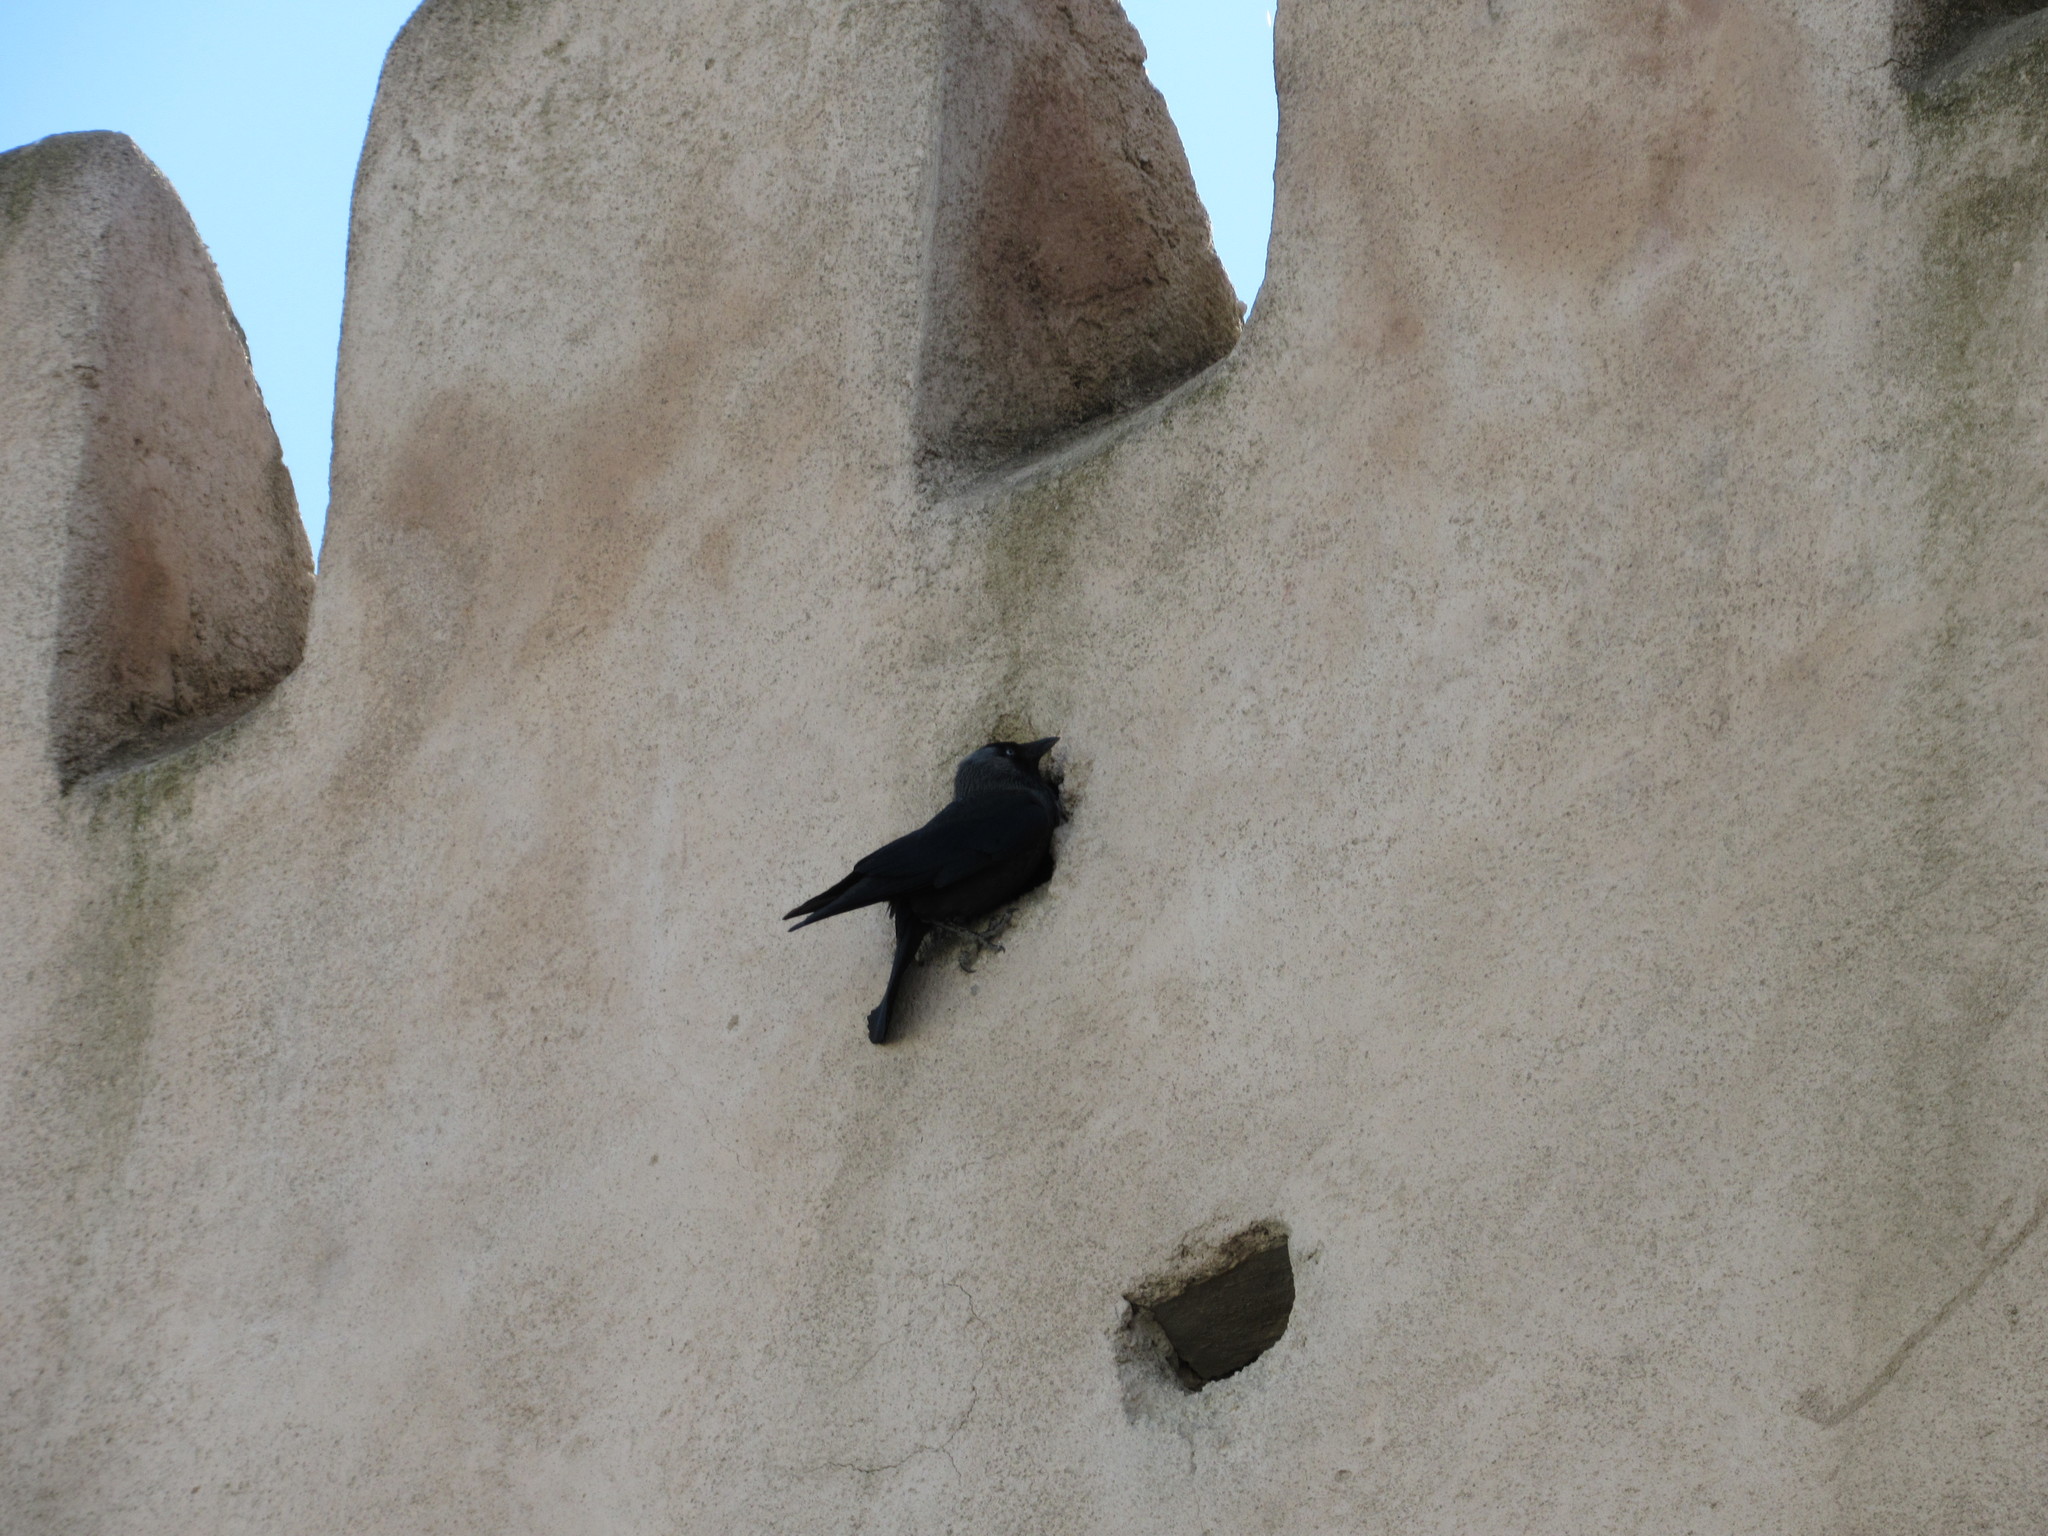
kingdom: Animalia
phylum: Chordata
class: Aves
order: Passeriformes
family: Corvidae
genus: Coloeus
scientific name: Coloeus monedula
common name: Western jackdaw
